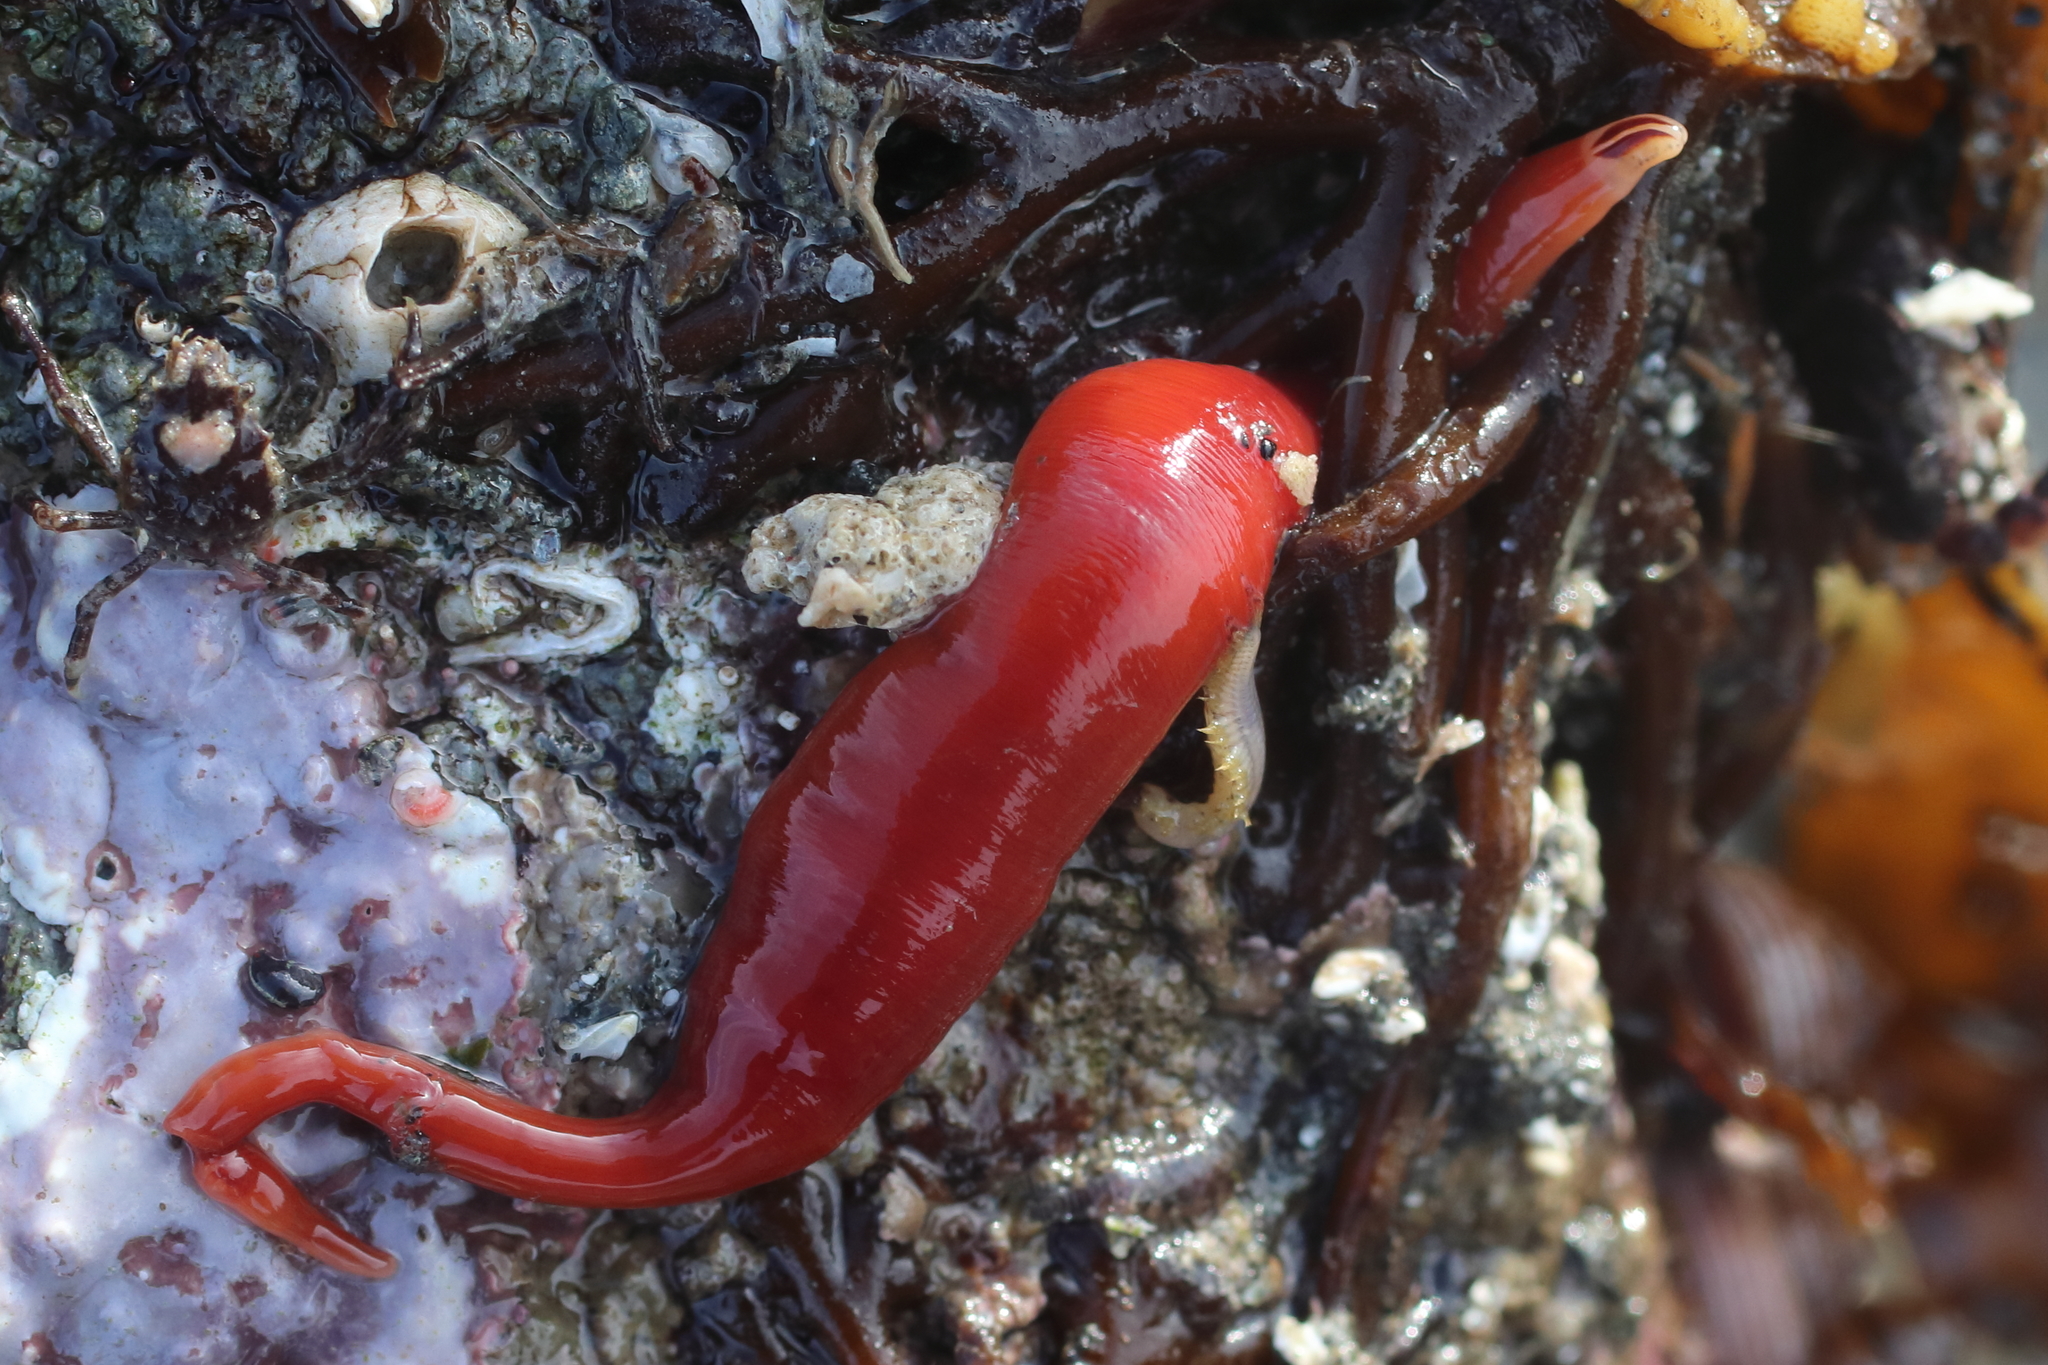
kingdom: Animalia
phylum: Nemertea
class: Hoplonemertea
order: Monostilifera
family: Cratenemertidae
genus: Nipponnemertes
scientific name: Nipponnemertes bimaculata
